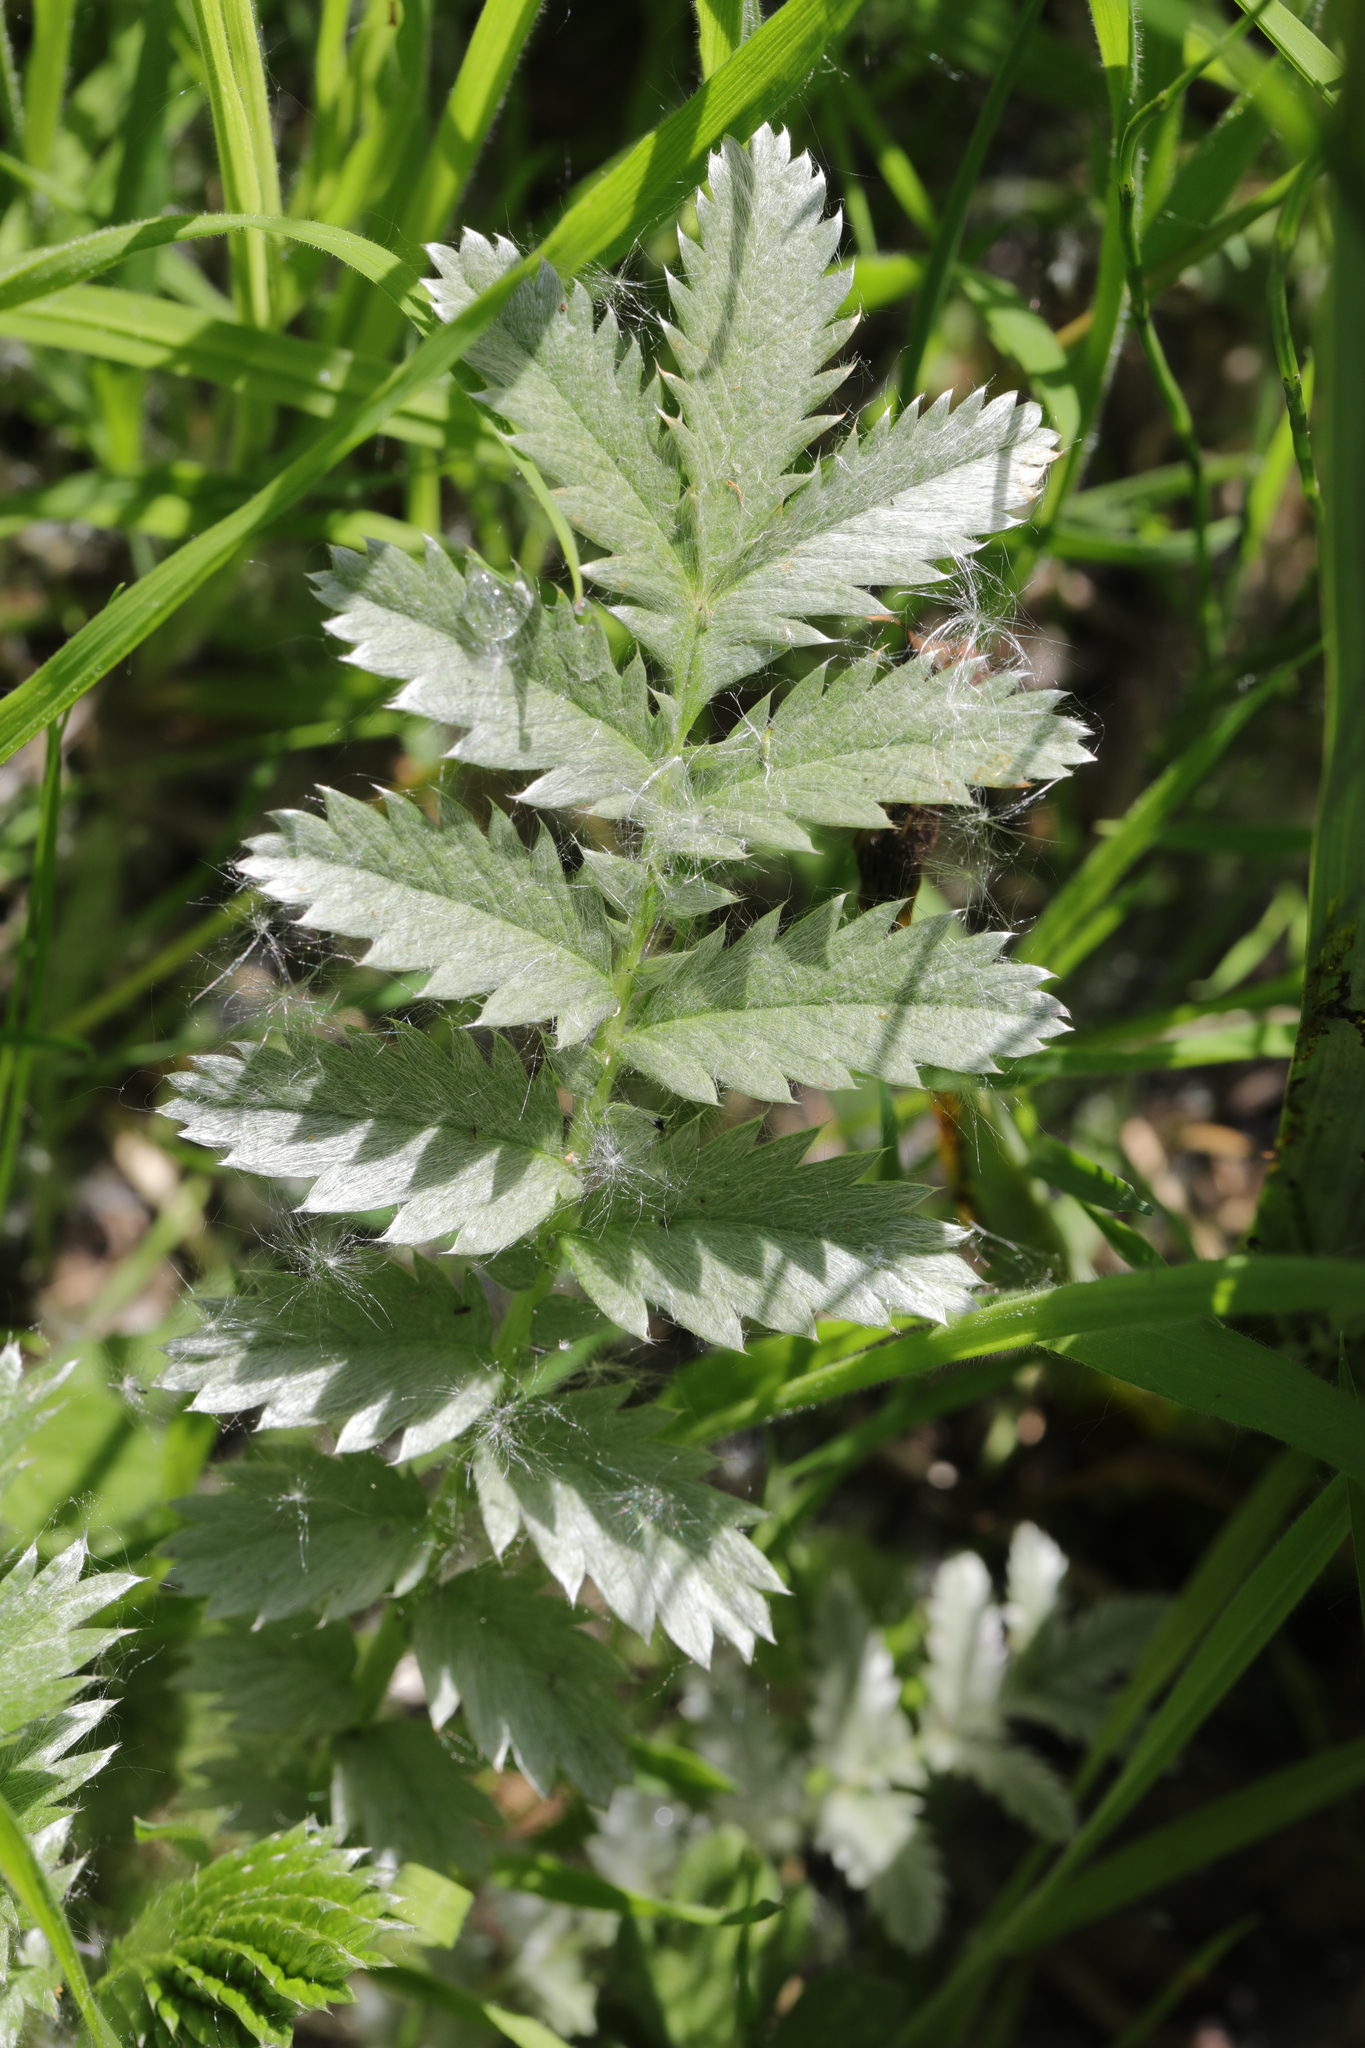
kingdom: Plantae
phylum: Tracheophyta
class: Magnoliopsida
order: Rosales
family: Rosaceae
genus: Argentina
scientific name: Argentina anserina
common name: Common silverweed
